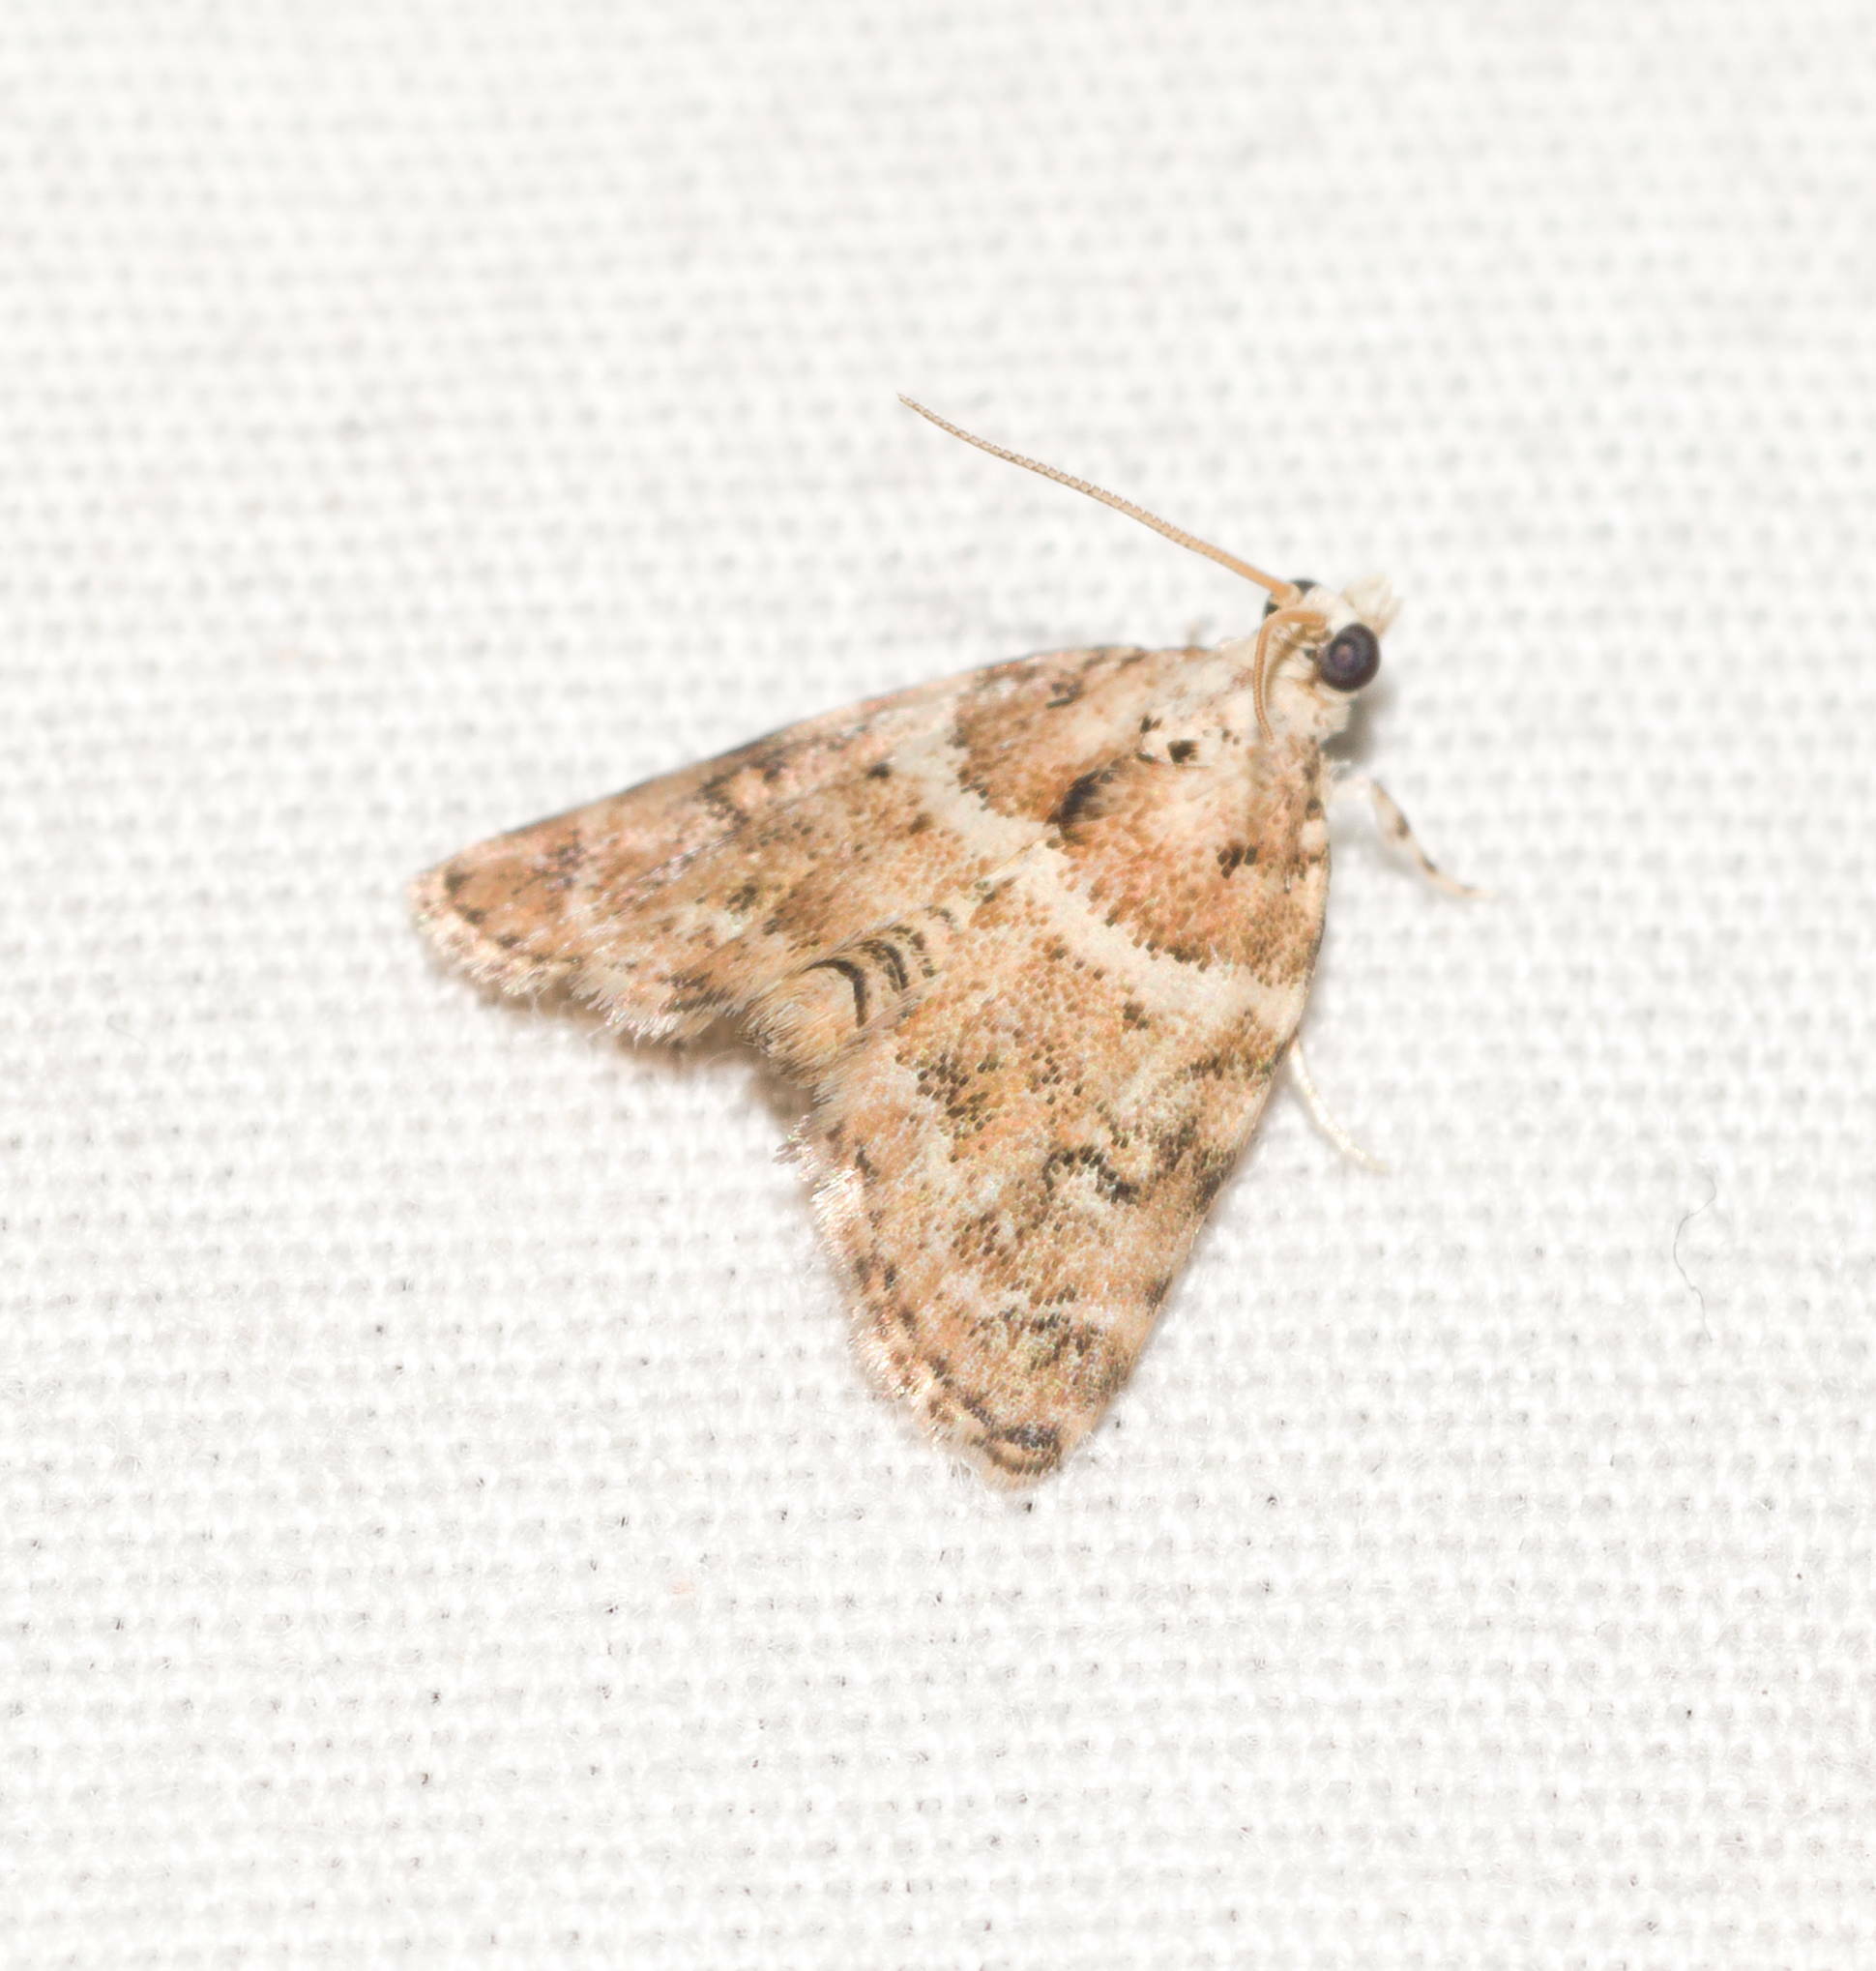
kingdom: Animalia
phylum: Arthropoda
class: Insecta
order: Lepidoptera
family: Crambidae
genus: Mestolobes
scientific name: Mestolobes perixantha
